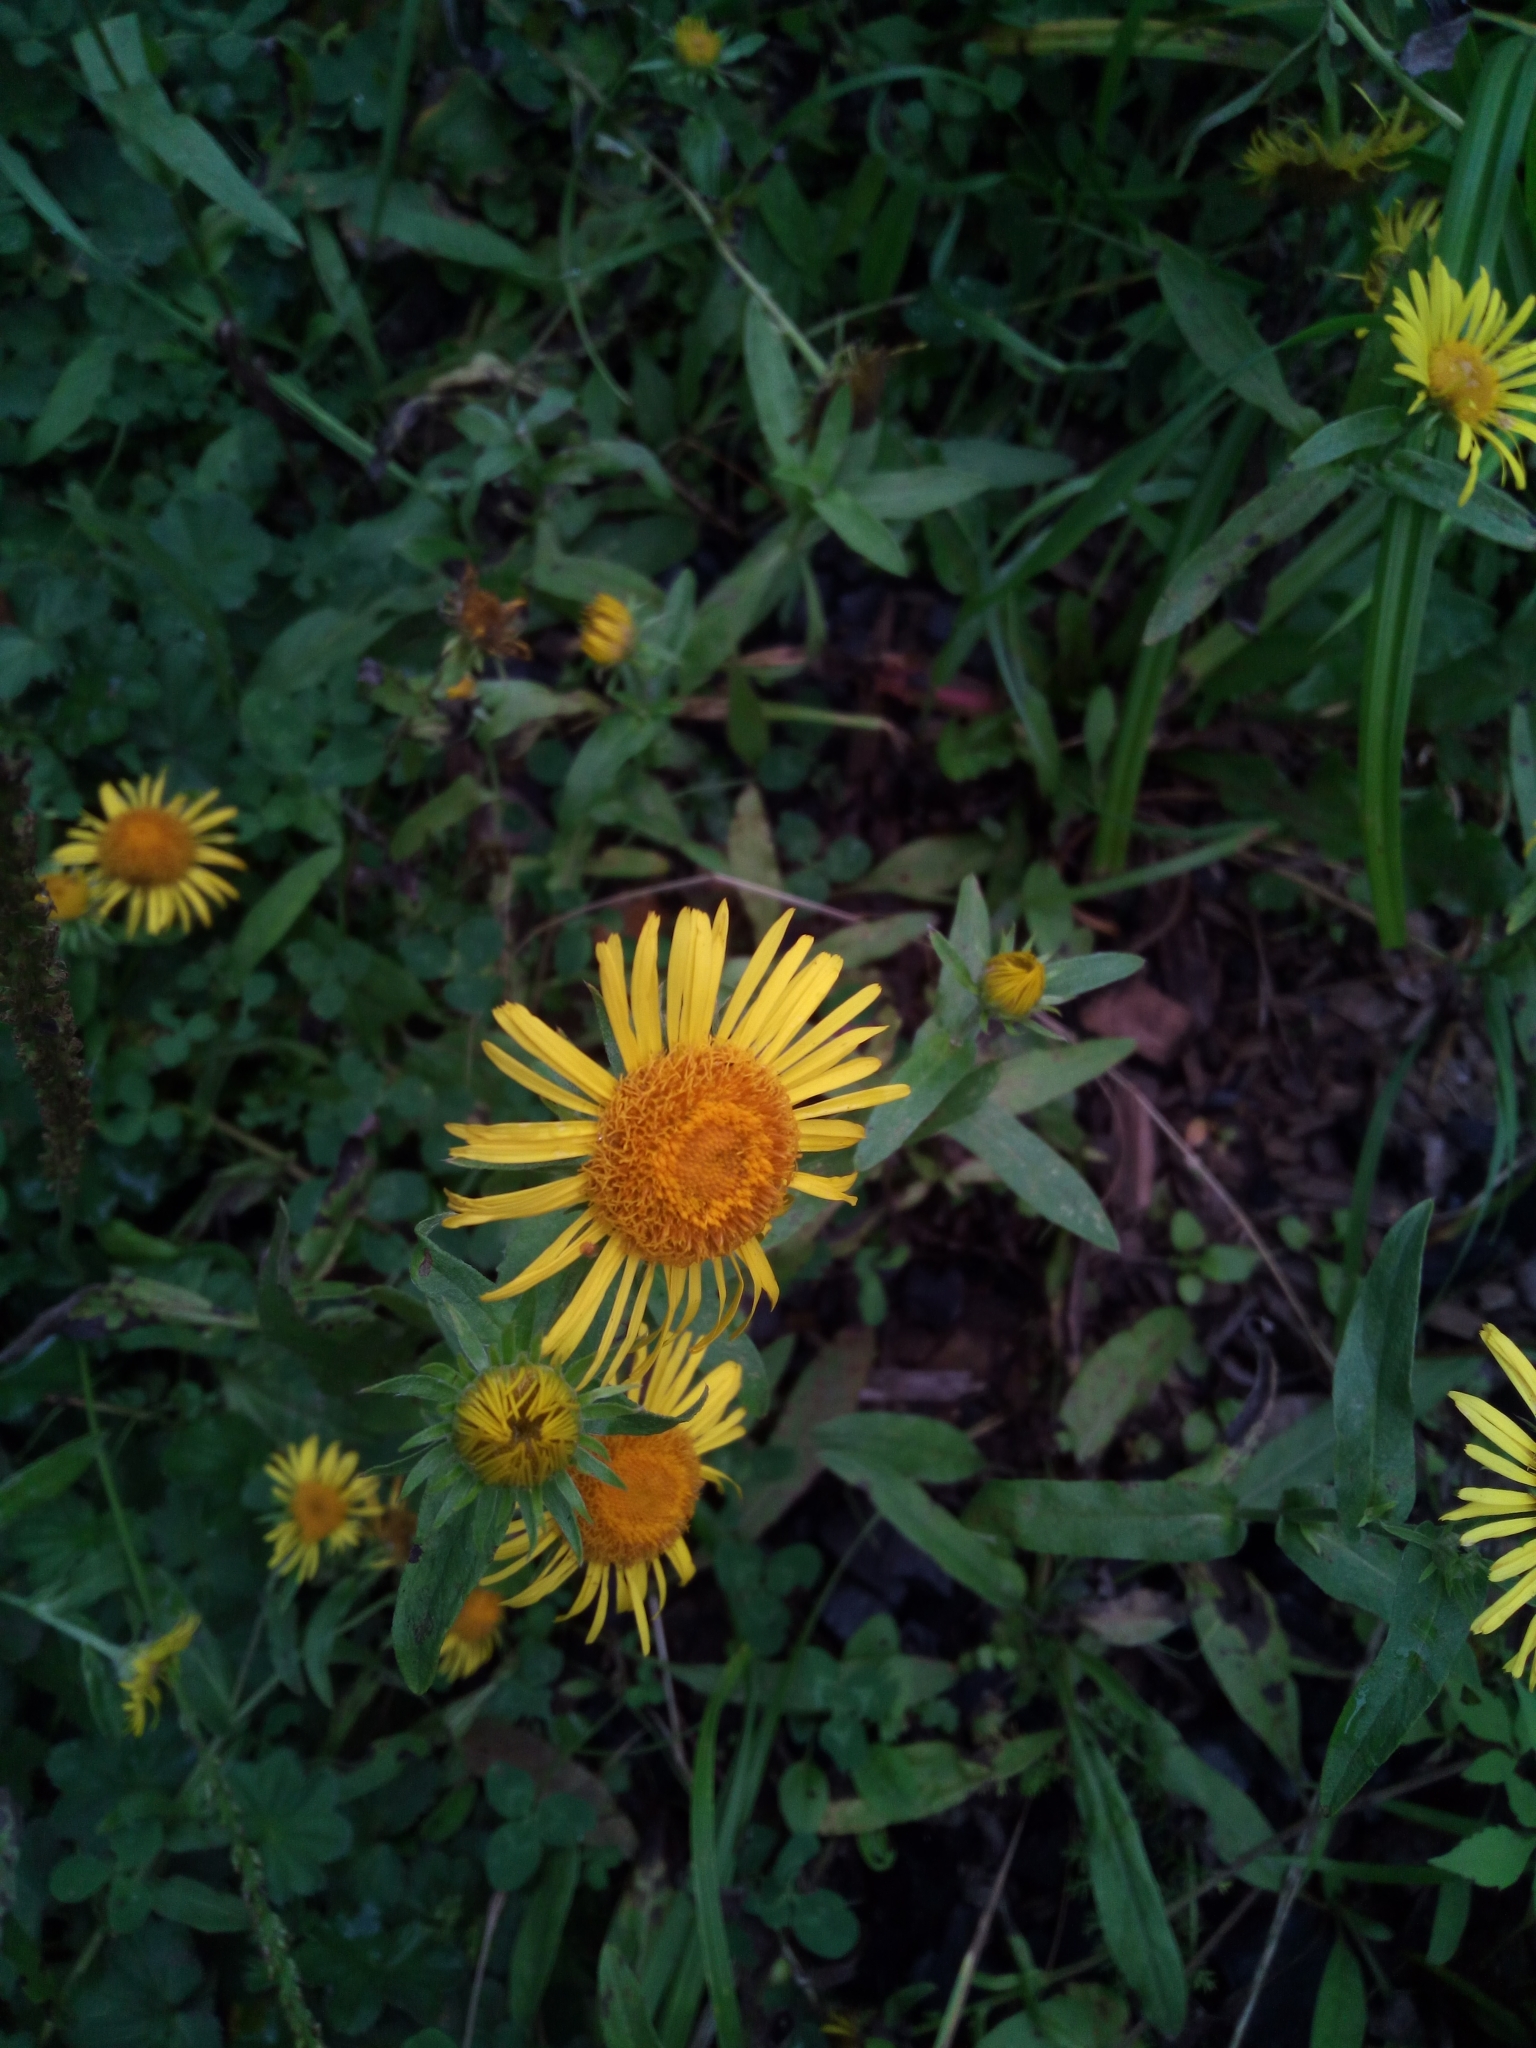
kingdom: Plantae
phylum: Tracheophyta
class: Magnoliopsida
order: Asterales
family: Asteraceae
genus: Pentanema
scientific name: Pentanema britannicum
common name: British elecampane
